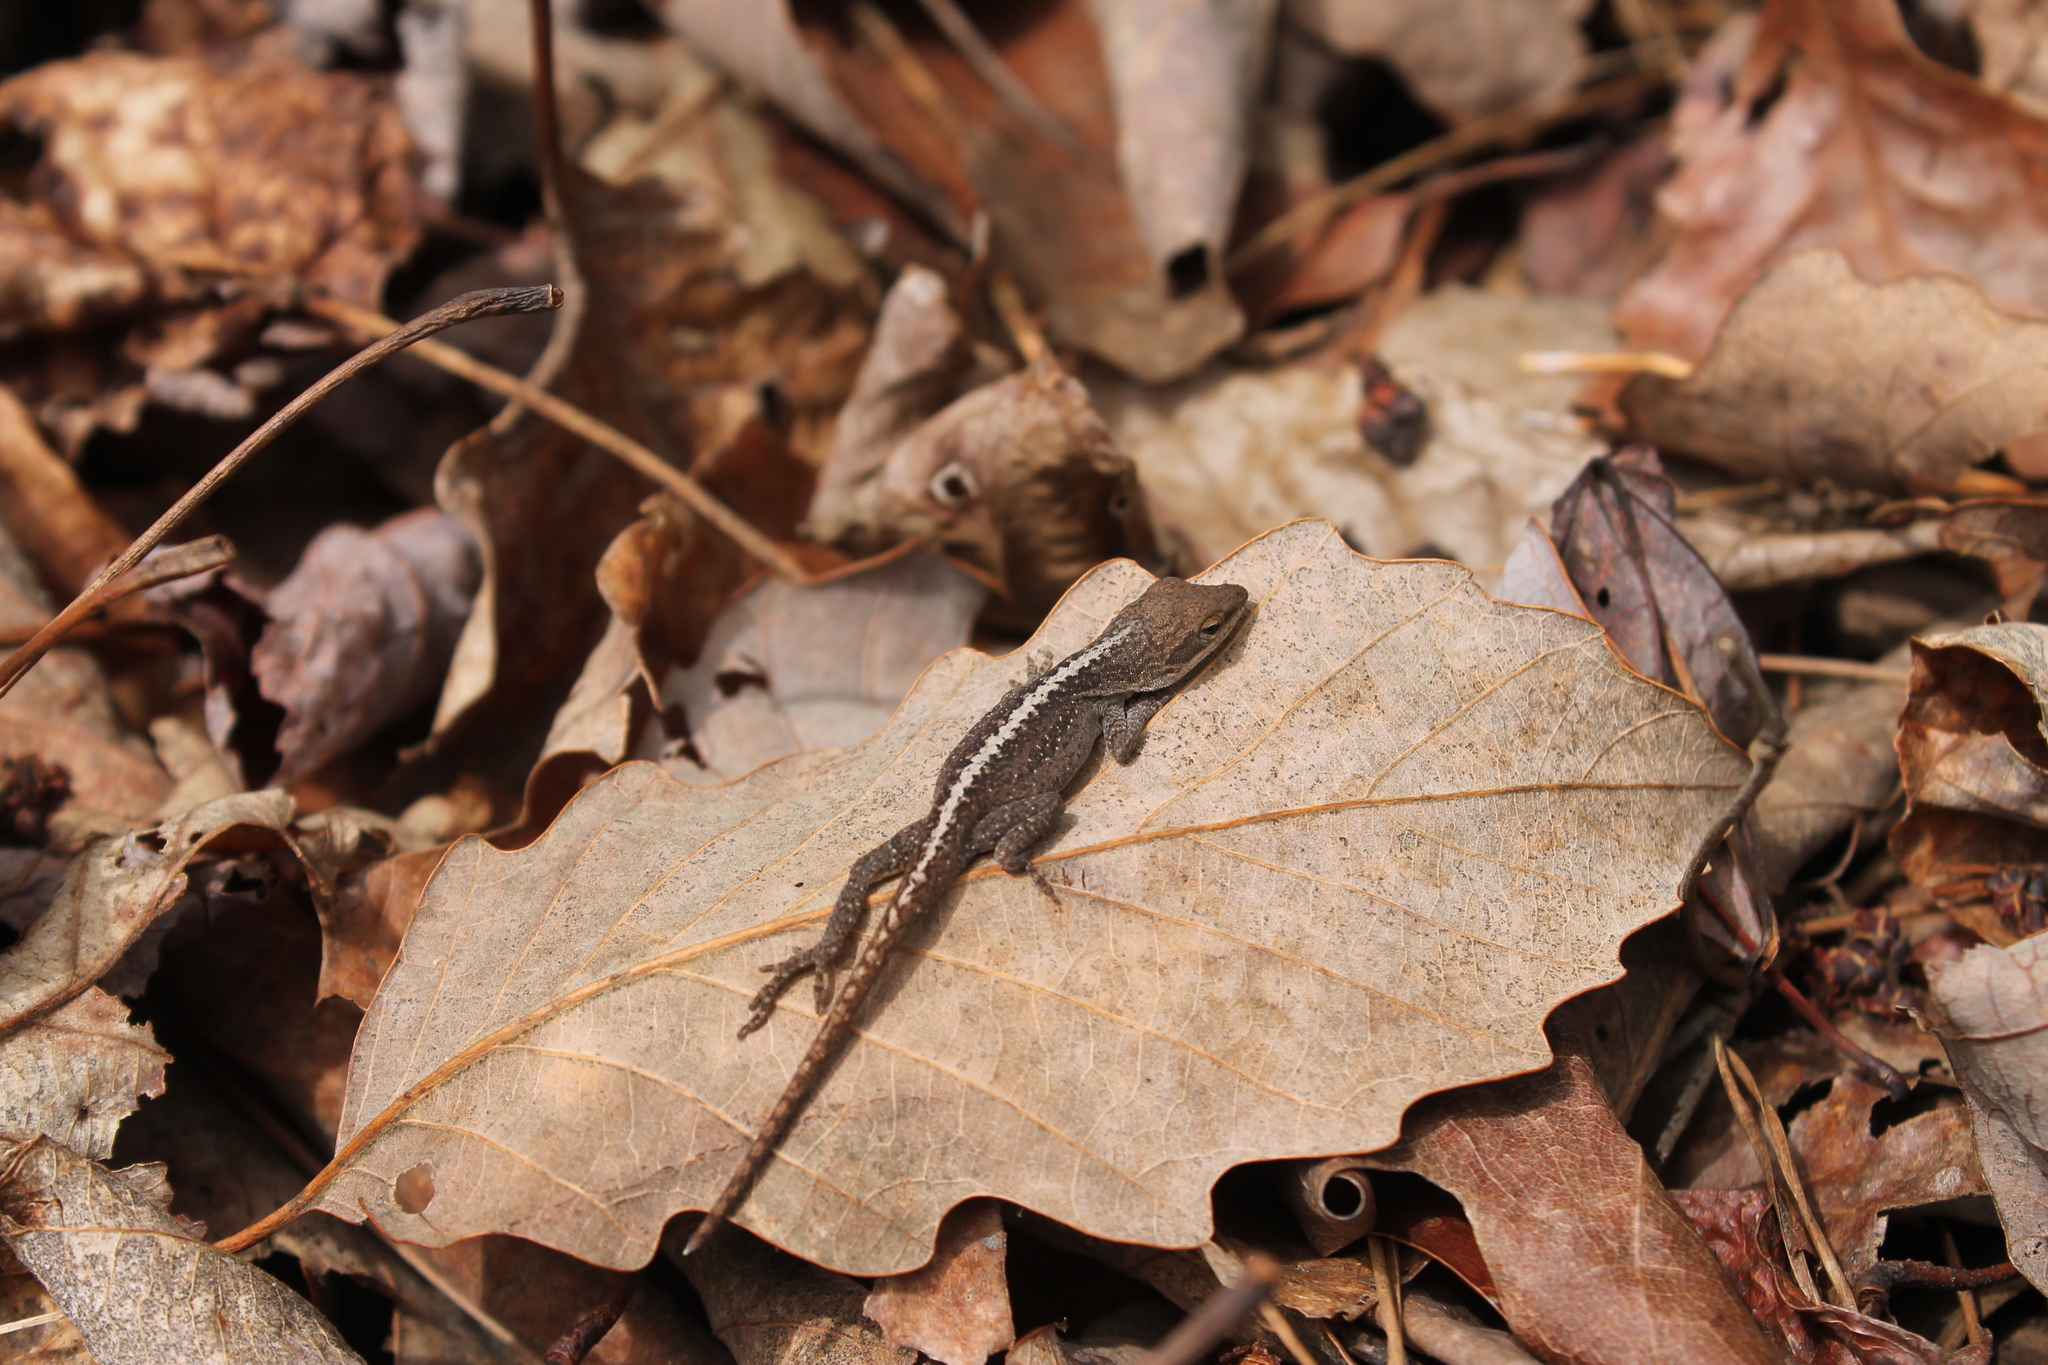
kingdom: Animalia
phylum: Chordata
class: Squamata
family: Dactyloidae
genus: Anolis
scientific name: Anolis carolinensis
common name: Green anole
